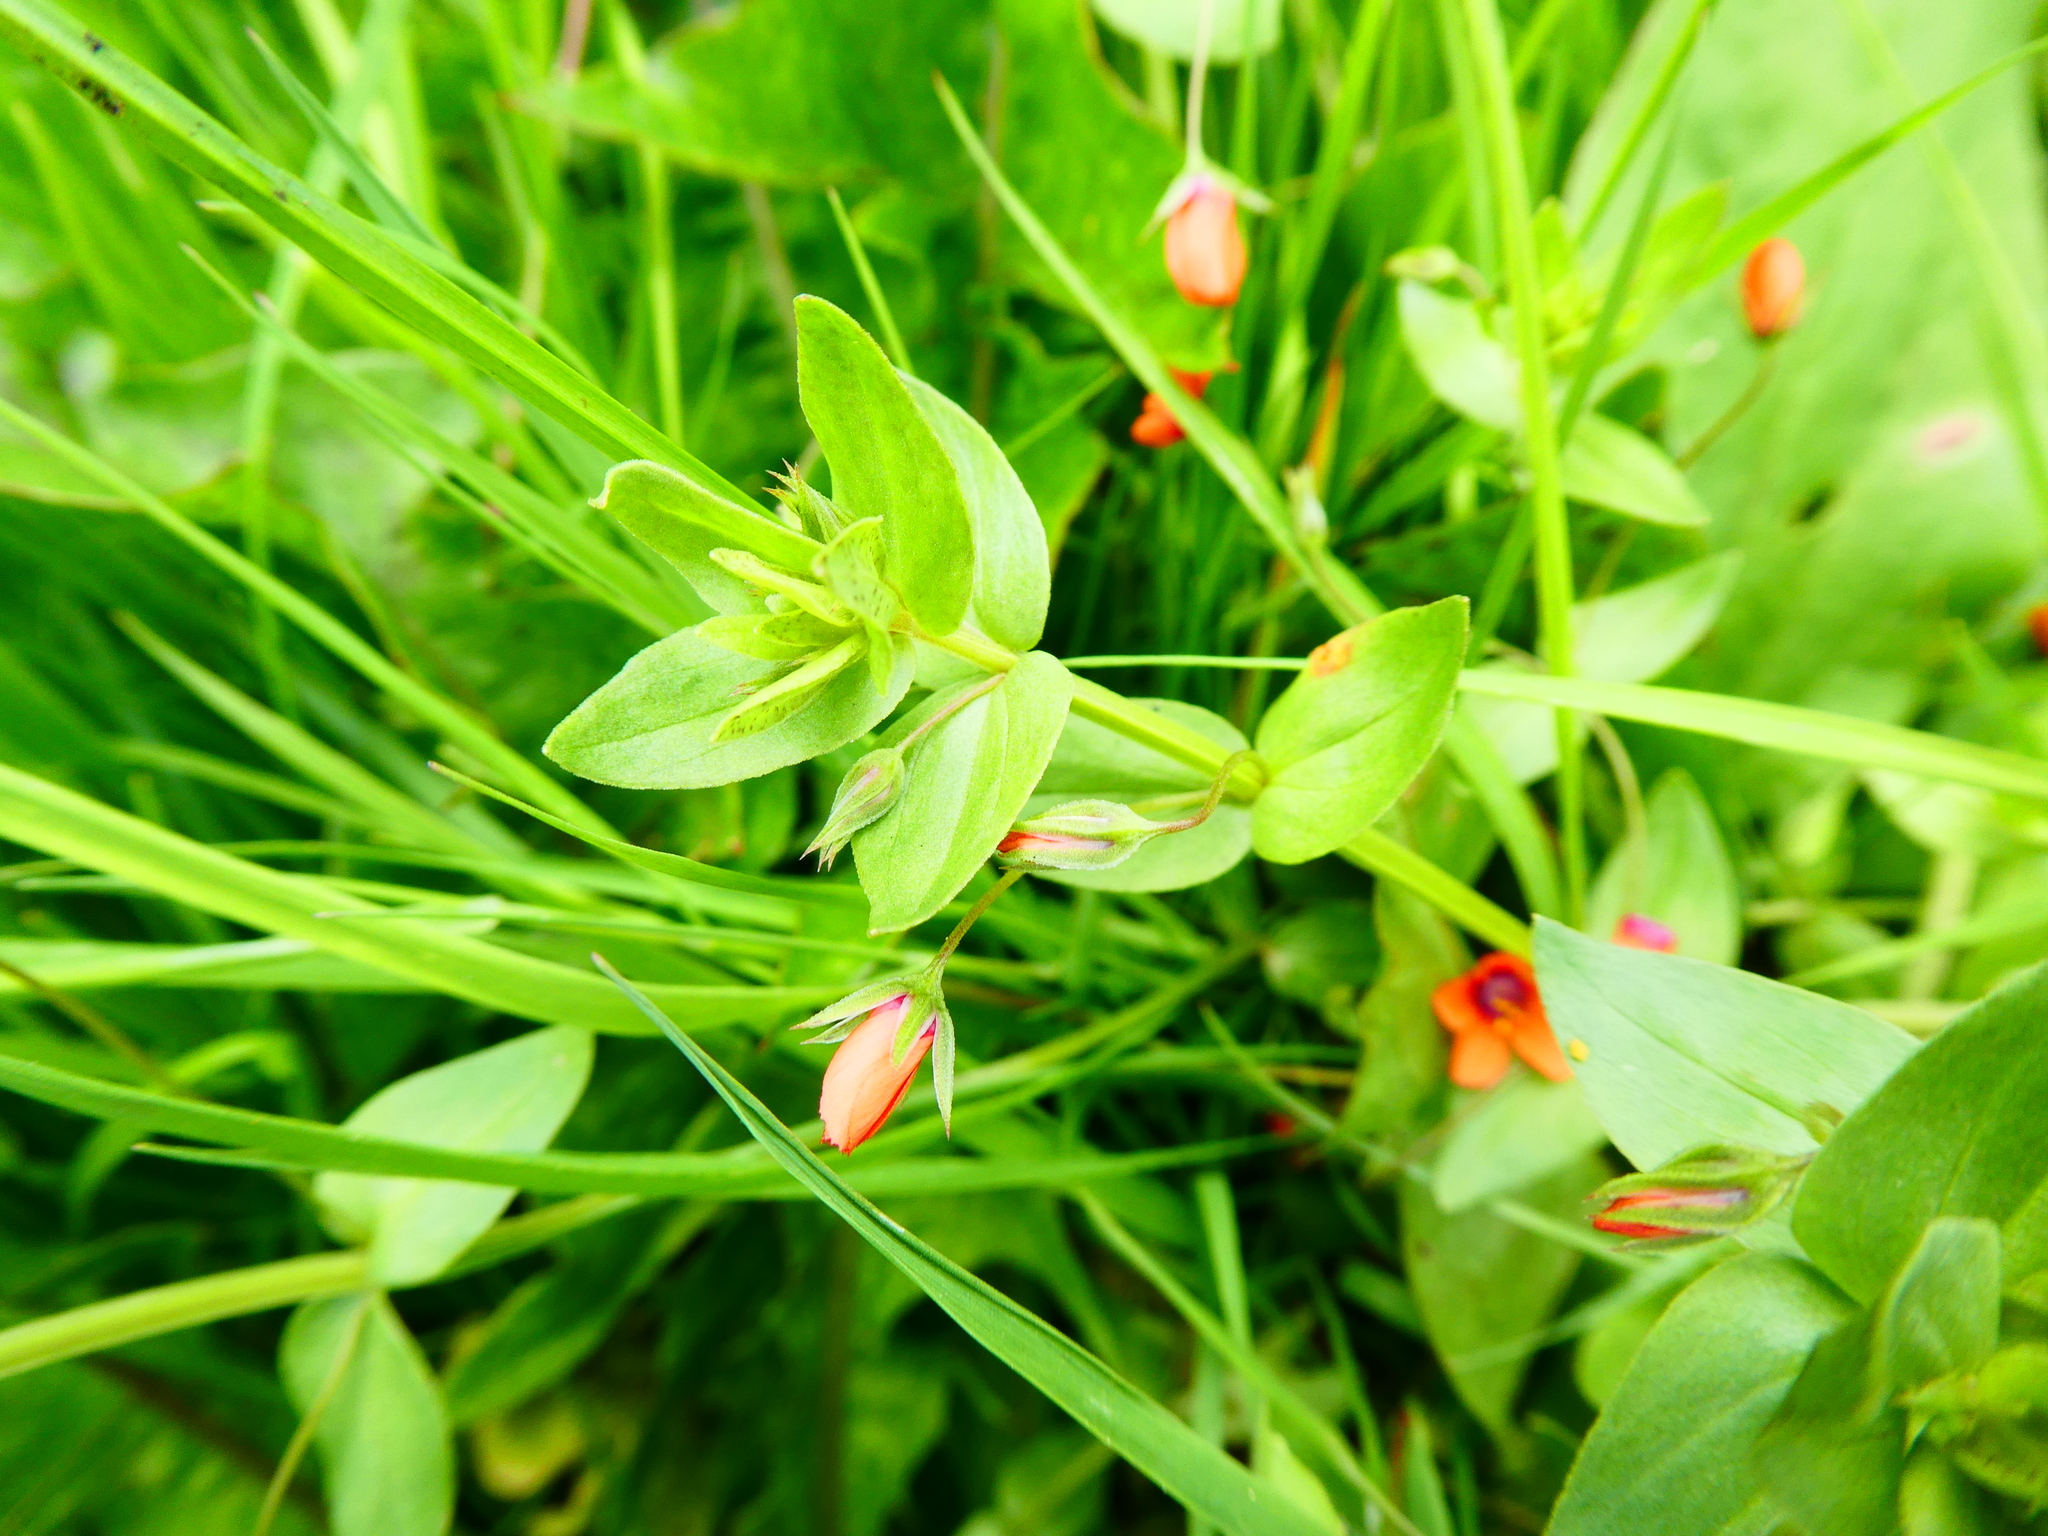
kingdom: Plantae
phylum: Tracheophyta
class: Magnoliopsida
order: Ericales
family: Primulaceae
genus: Lysimachia
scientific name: Lysimachia arvensis
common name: Scarlet pimpernel
